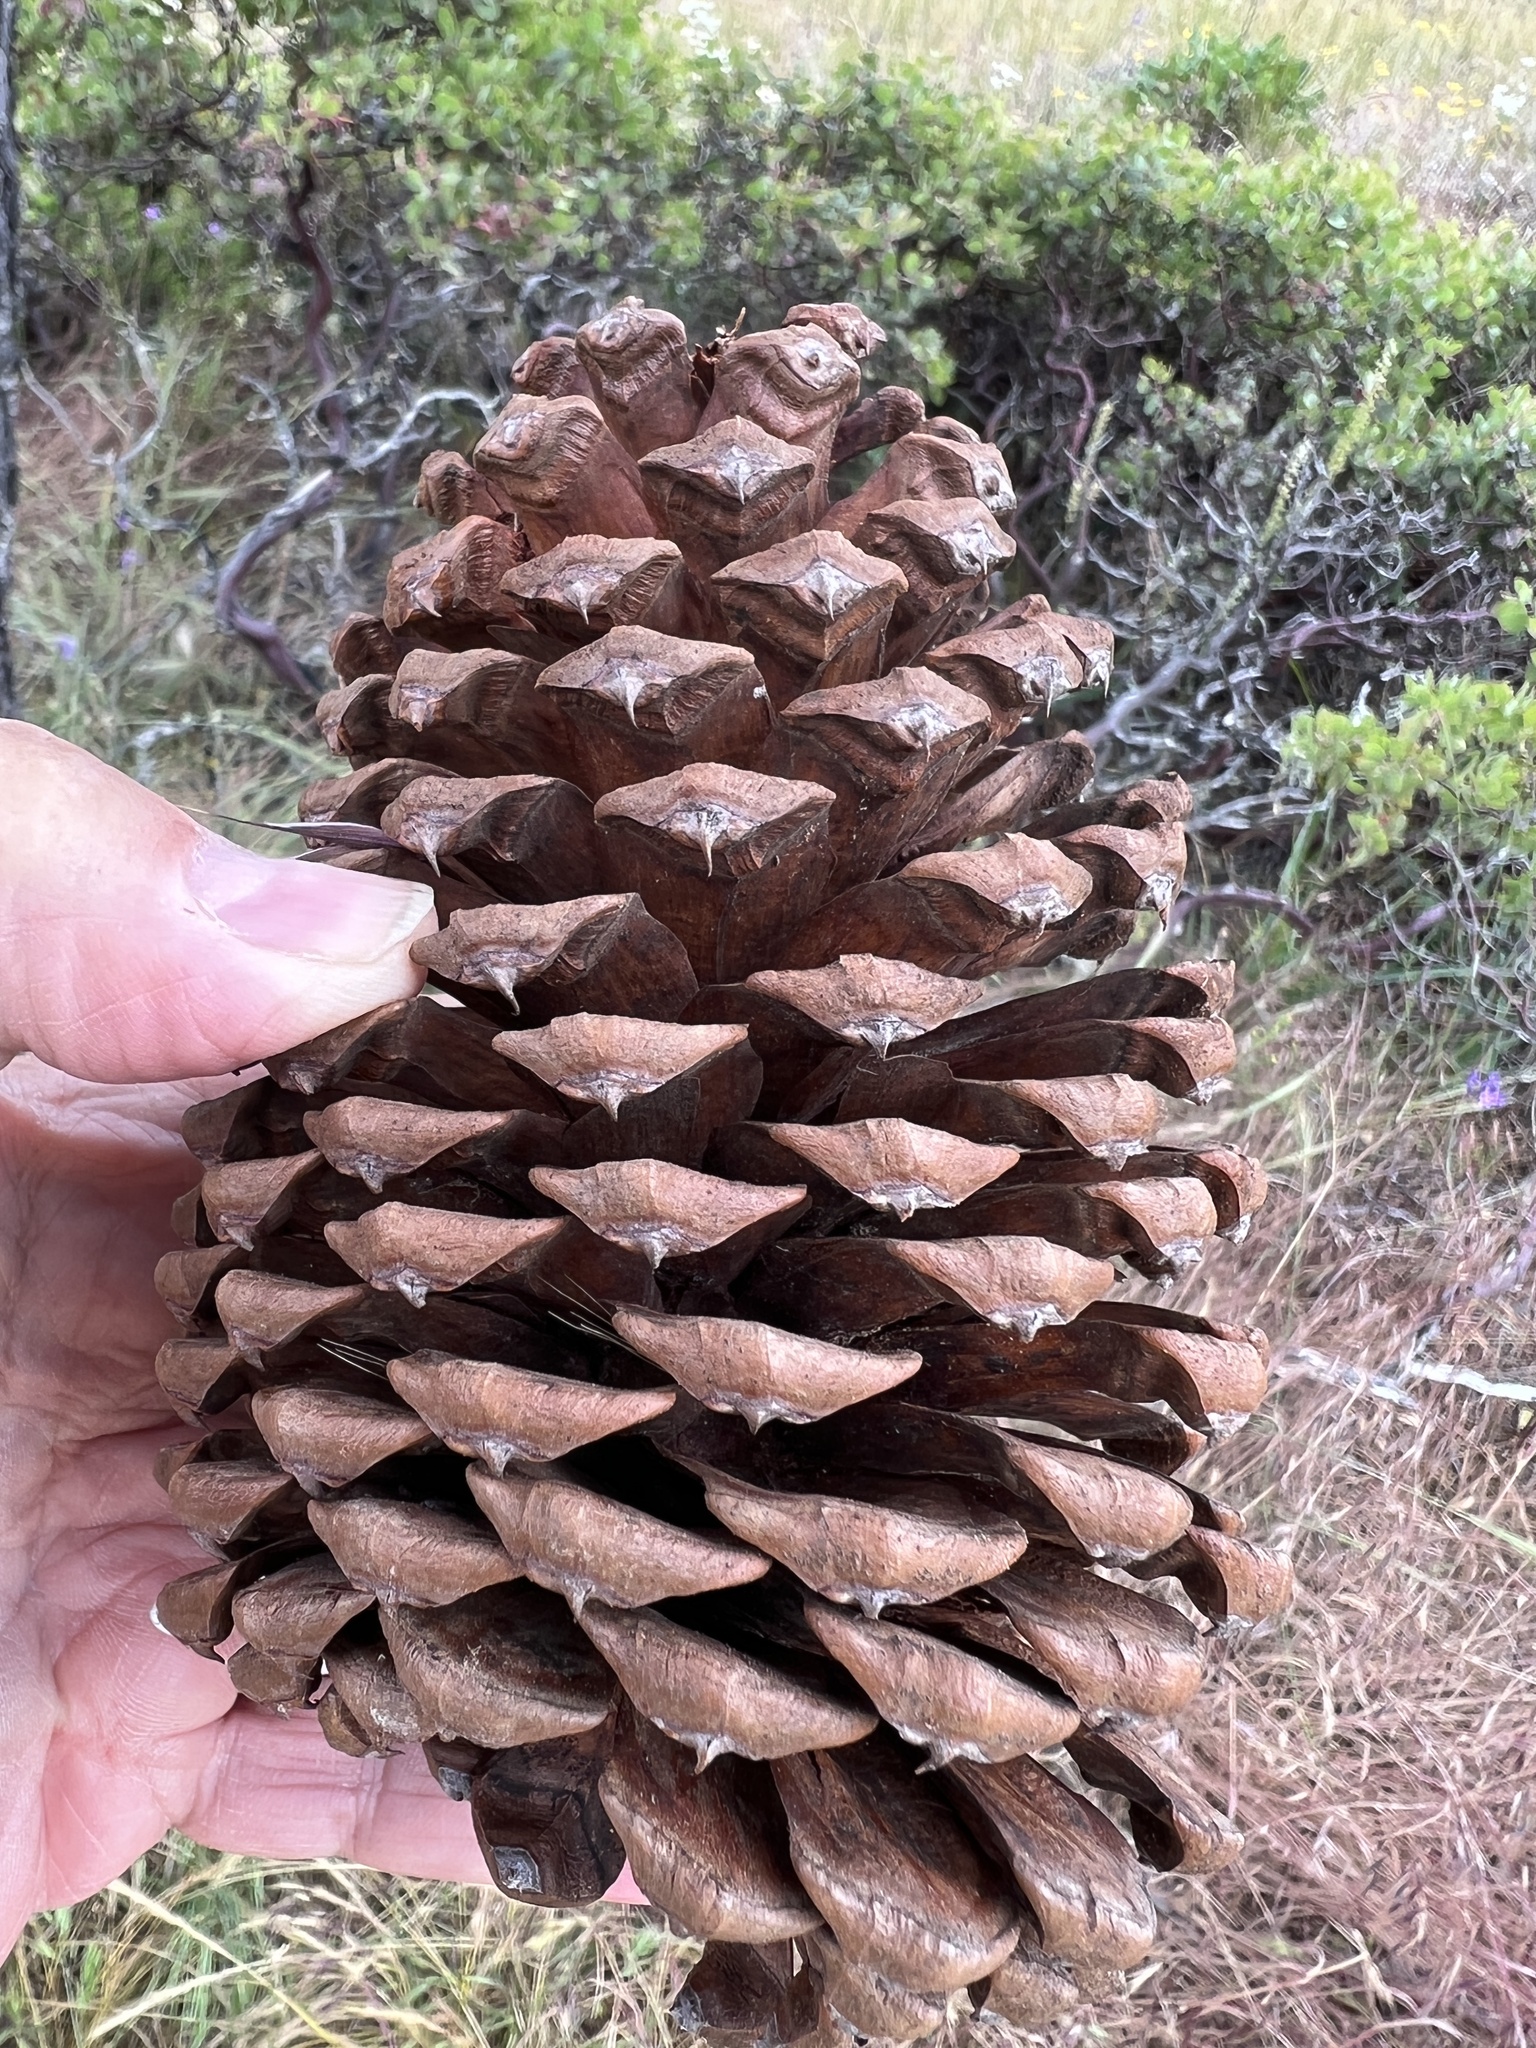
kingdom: Plantae
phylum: Tracheophyta
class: Pinopsida
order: Pinales
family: Pinaceae
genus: Pinus
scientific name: Pinus jeffreyi
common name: Jeffrey pine
